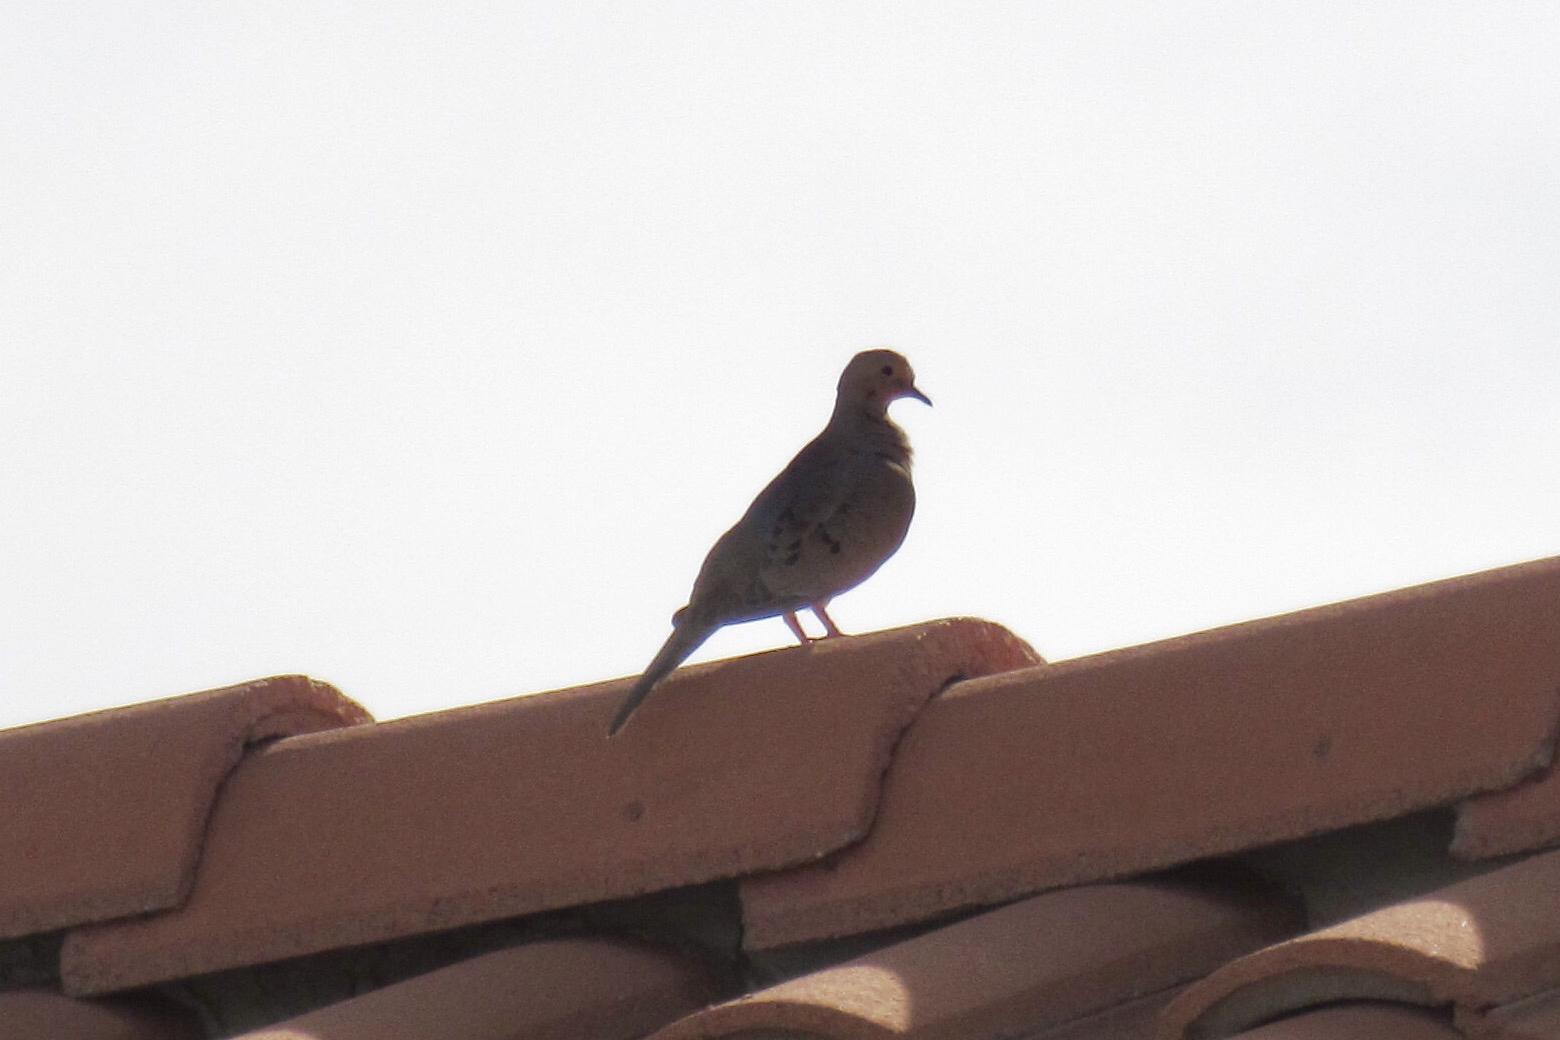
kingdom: Animalia
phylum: Chordata
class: Aves
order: Columbiformes
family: Columbidae
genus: Zenaida
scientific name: Zenaida macroura
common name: Mourning dove
